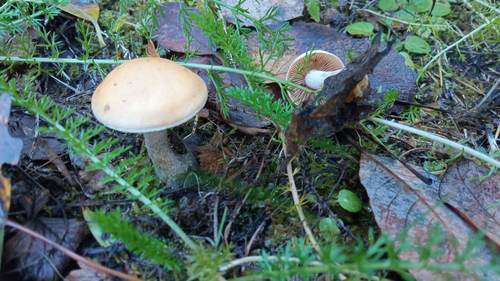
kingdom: Fungi
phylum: Basidiomycota
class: Agaricomycetes
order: Agaricales
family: Hymenogastraceae
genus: Hebeloma
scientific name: Hebeloma
